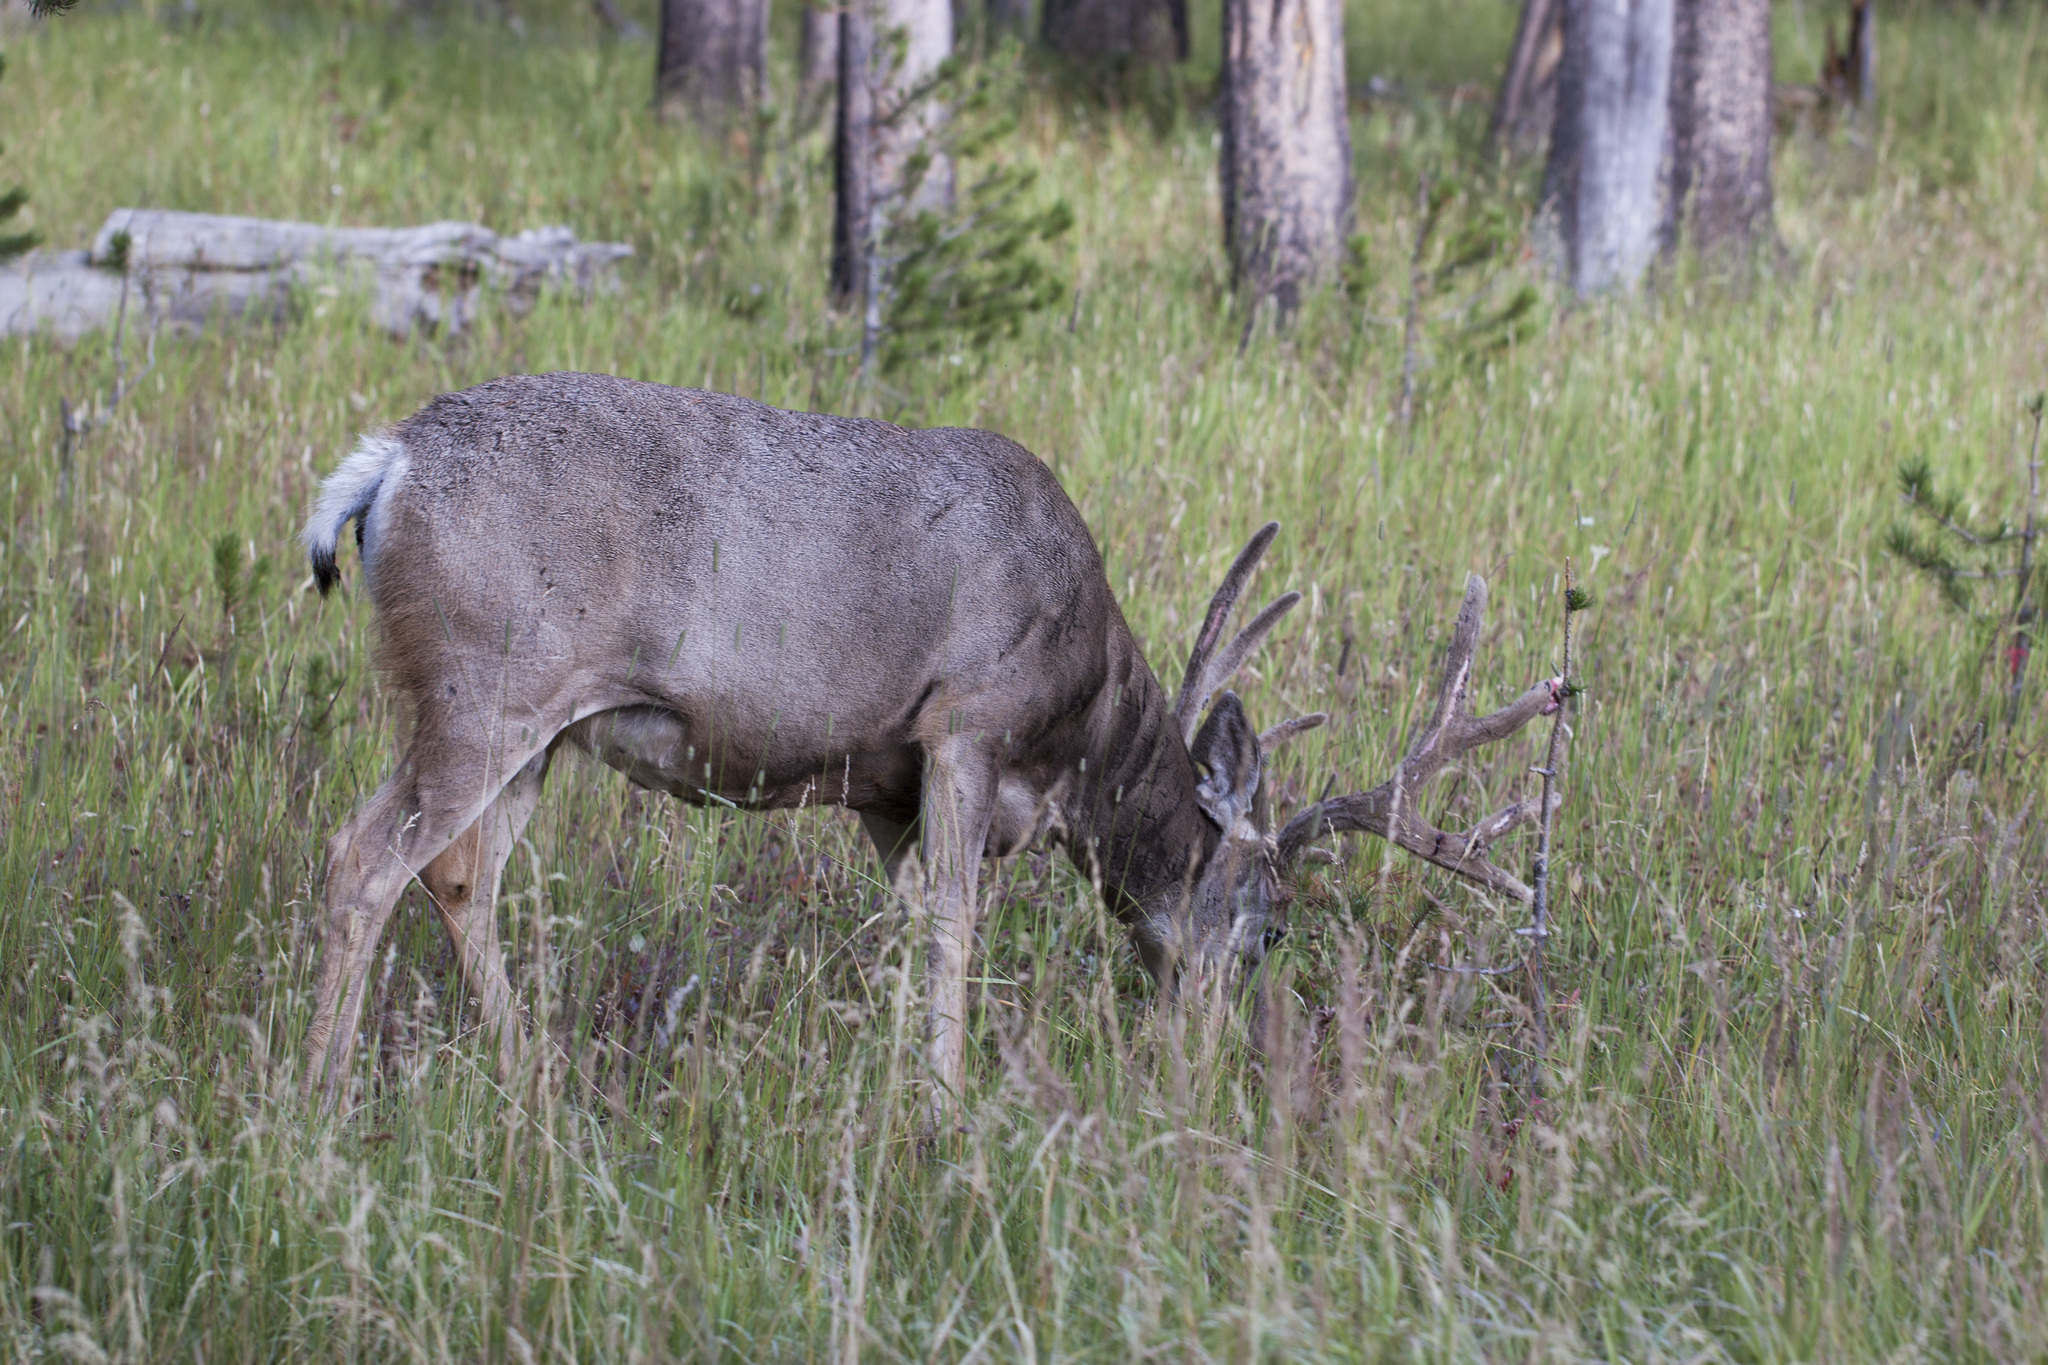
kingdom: Animalia
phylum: Chordata
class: Mammalia
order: Artiodactyla
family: Cervidae
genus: Odocoileus
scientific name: Odocoileus hemionus
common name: Mule deer
